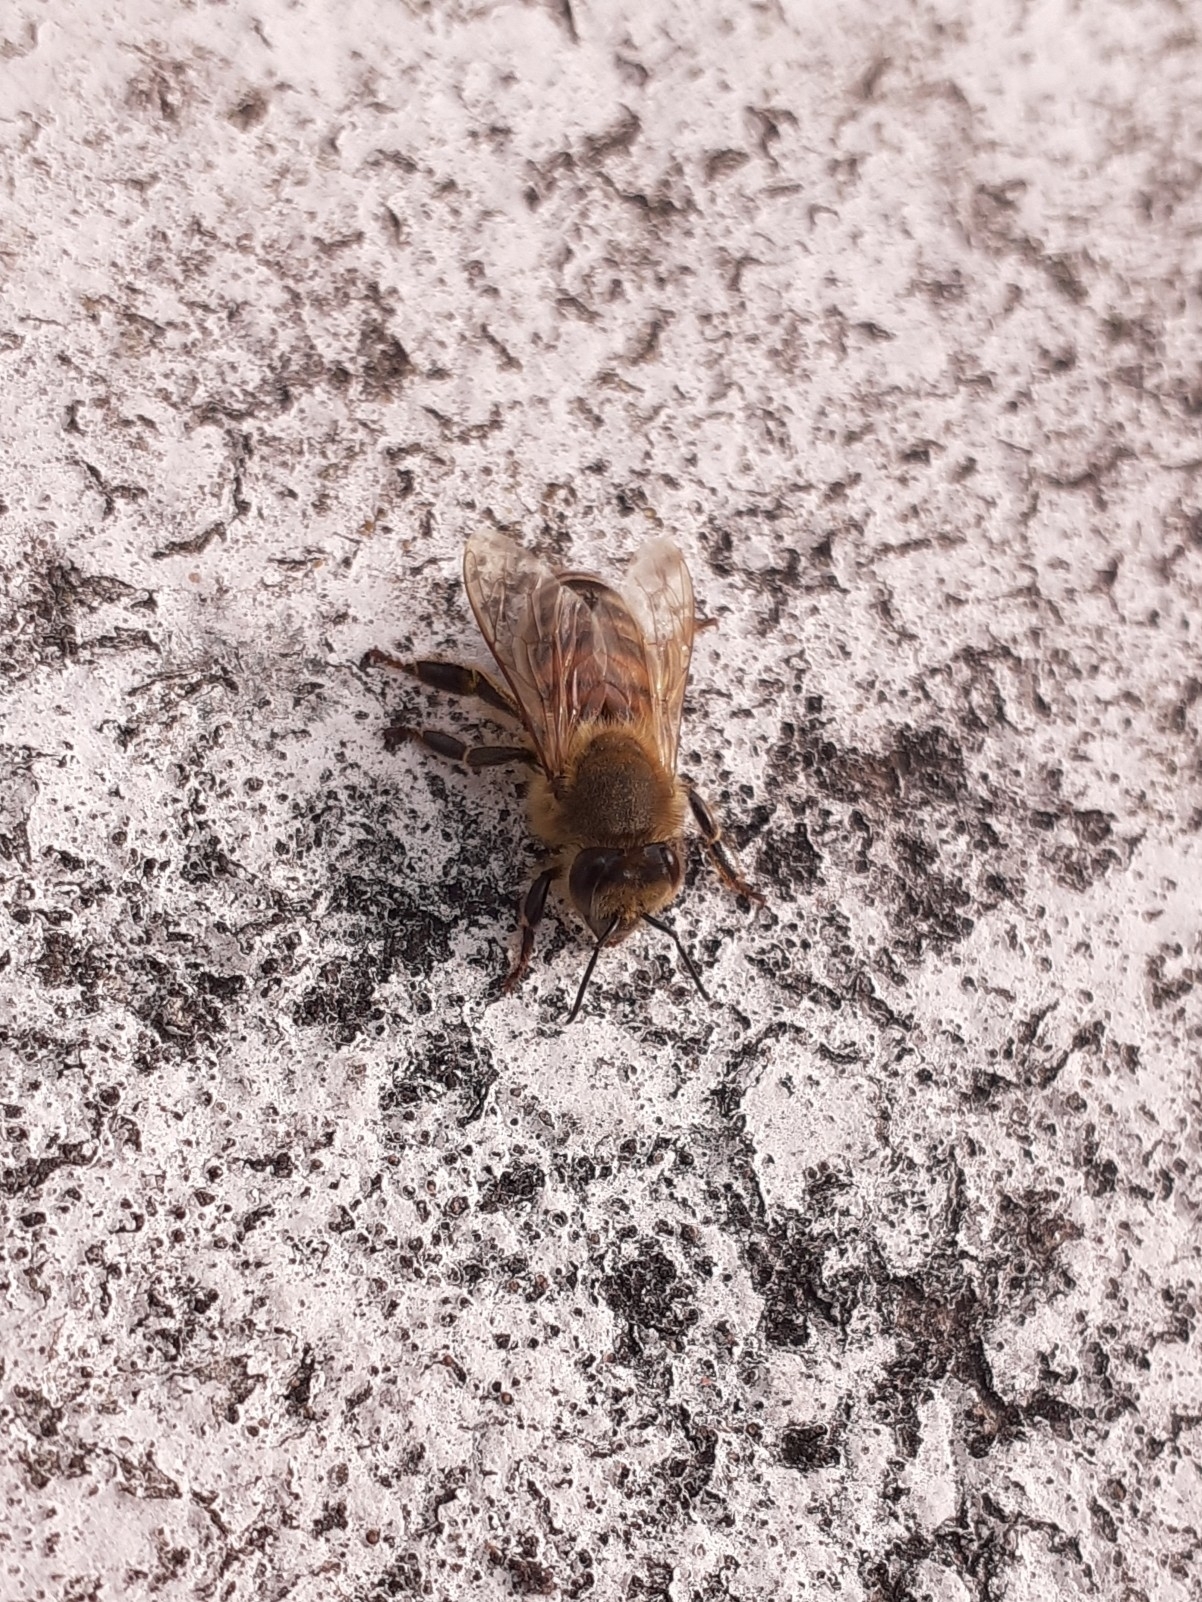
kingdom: Animalia
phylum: Arthropoda
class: Insecta
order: Hymenoptera
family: Apidae
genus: Apis
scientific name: Apis mellifera
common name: Honey bee
